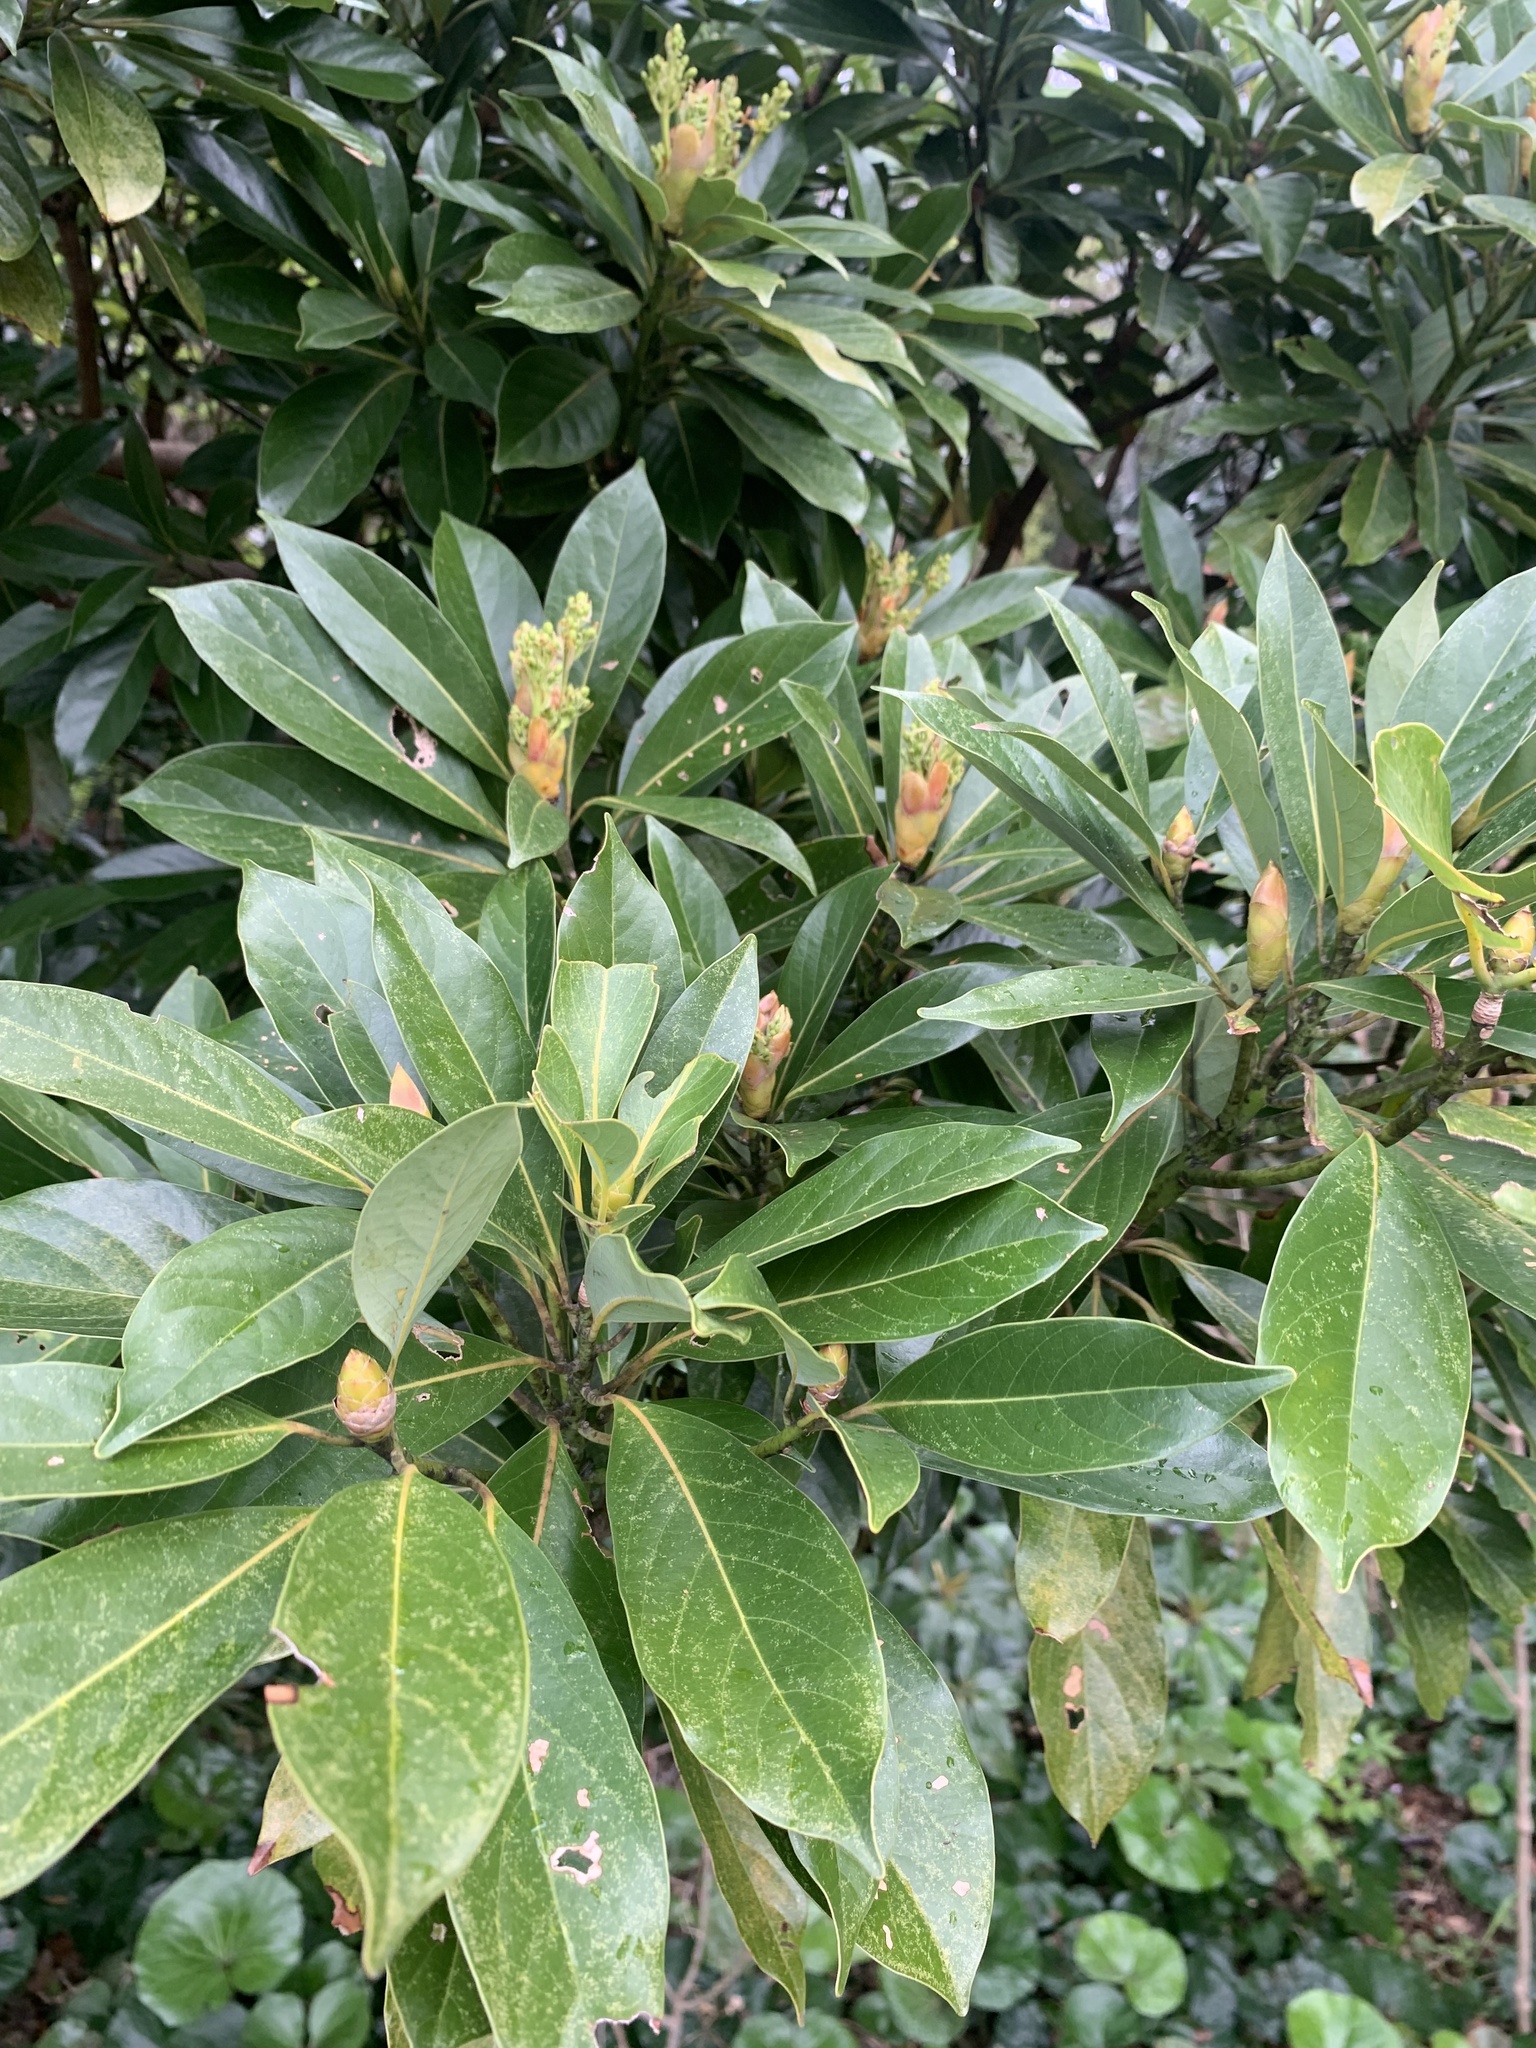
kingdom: Plantae
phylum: Tracheophyta
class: Magnoliopsida
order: Laurales
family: Lauraceae
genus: Machilus
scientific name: Machilus thunbergii
